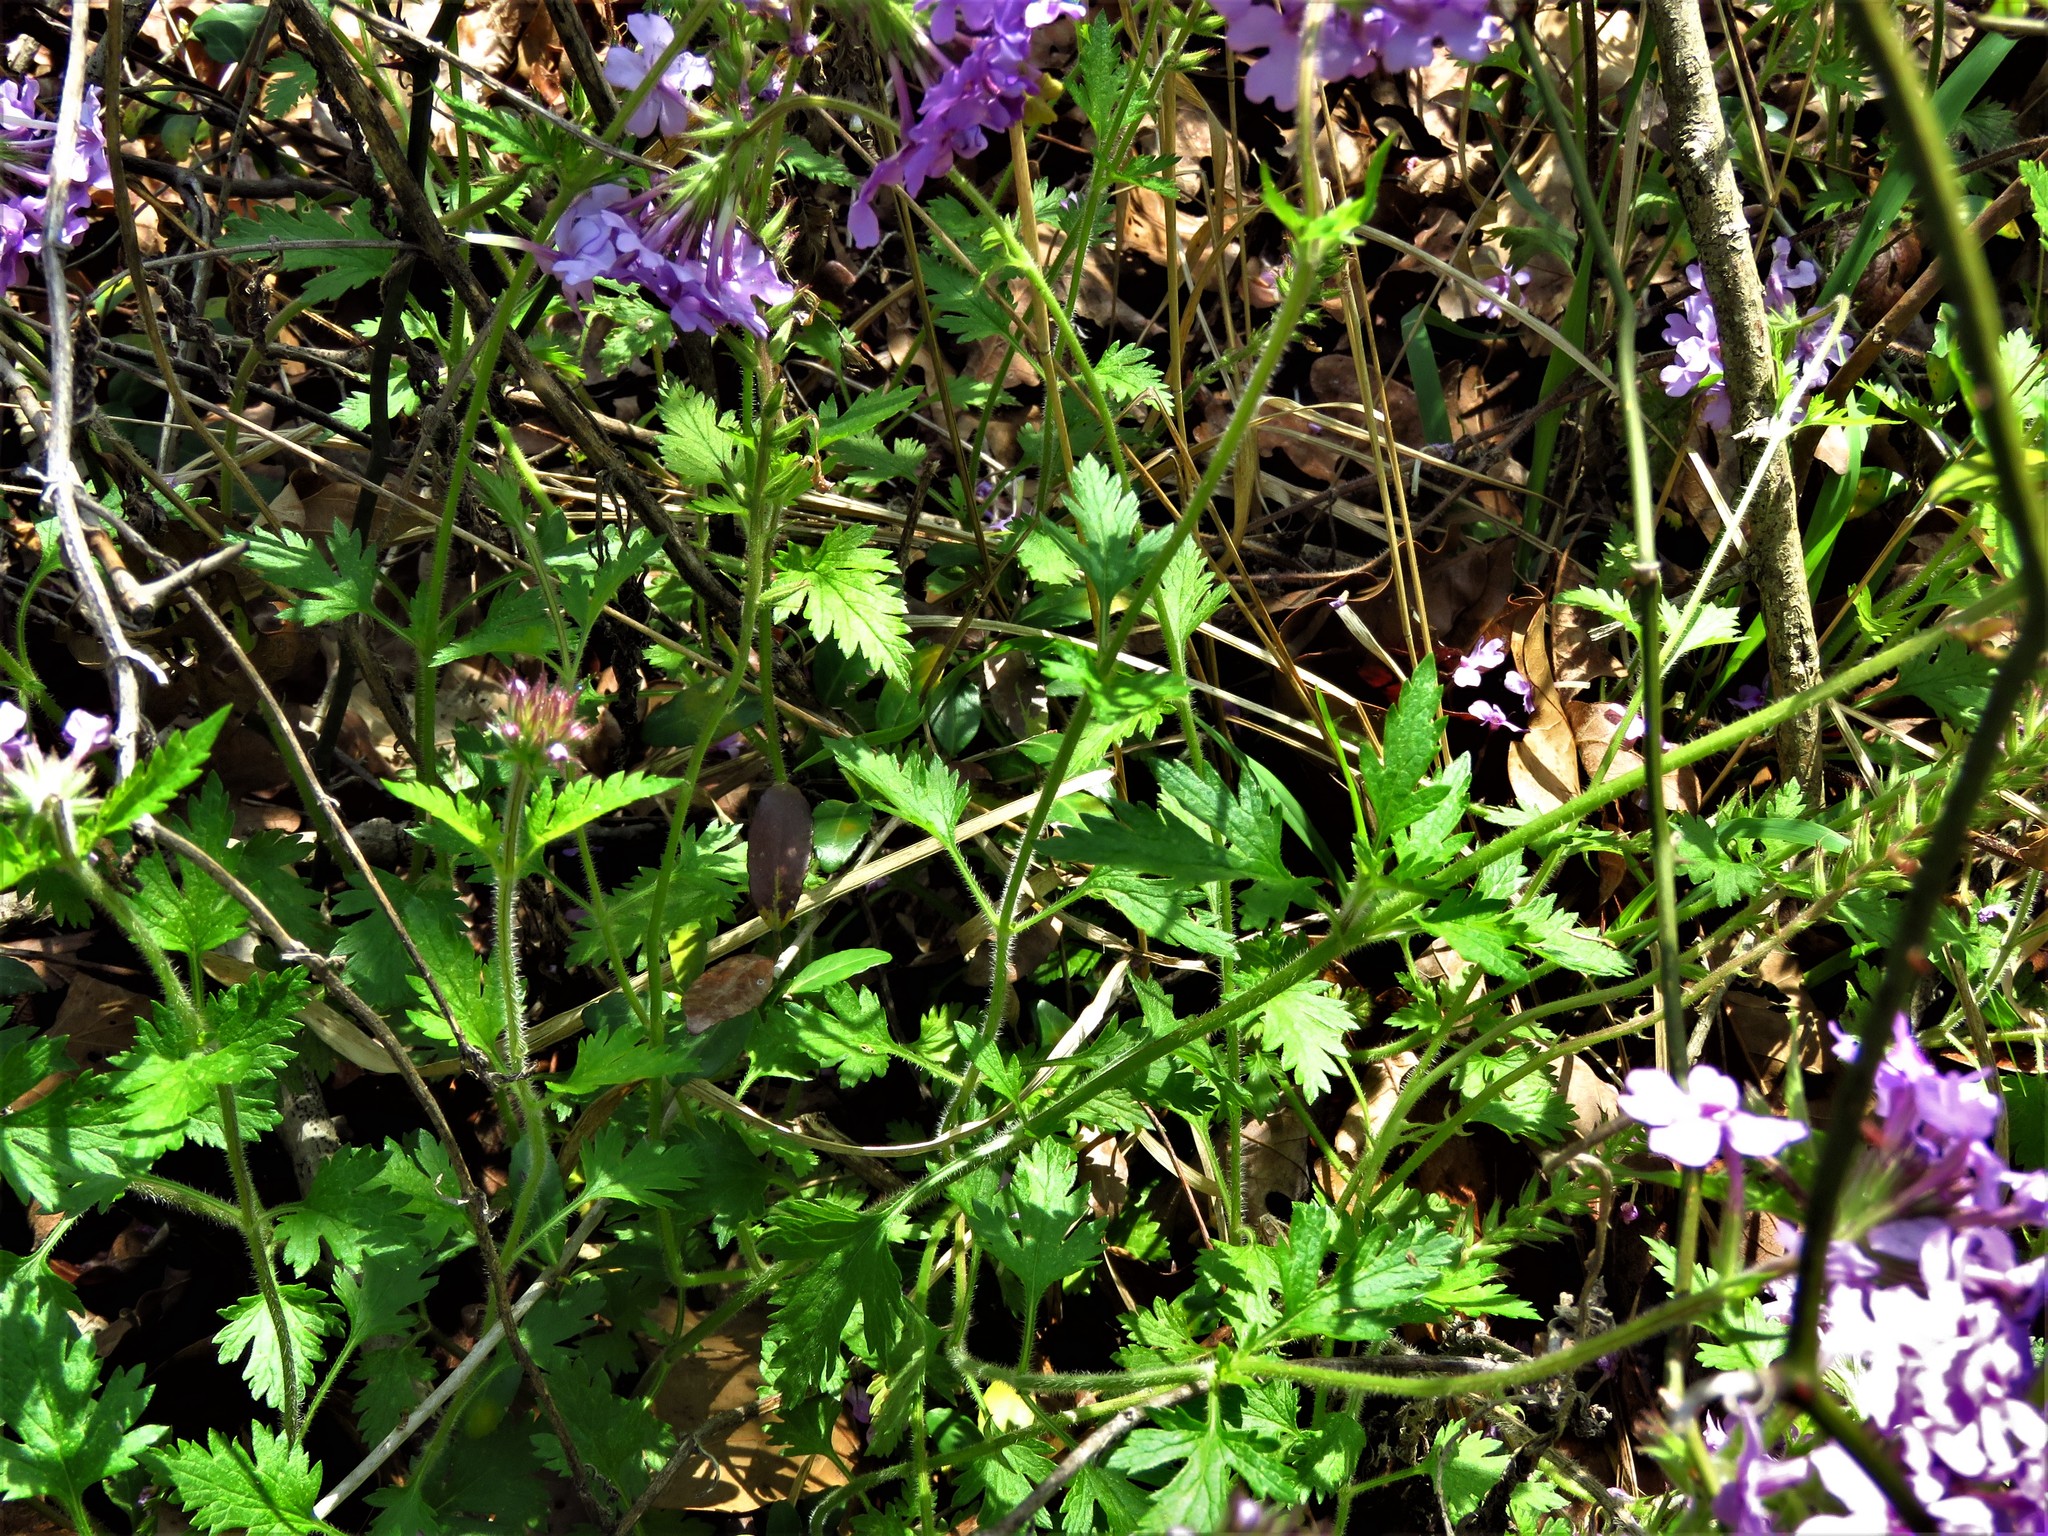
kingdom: Plantae
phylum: Tracheophyta
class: Magnoliopsida
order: Lamiales
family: Verbenaceae
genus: Verbena
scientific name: Verbena canadensis
